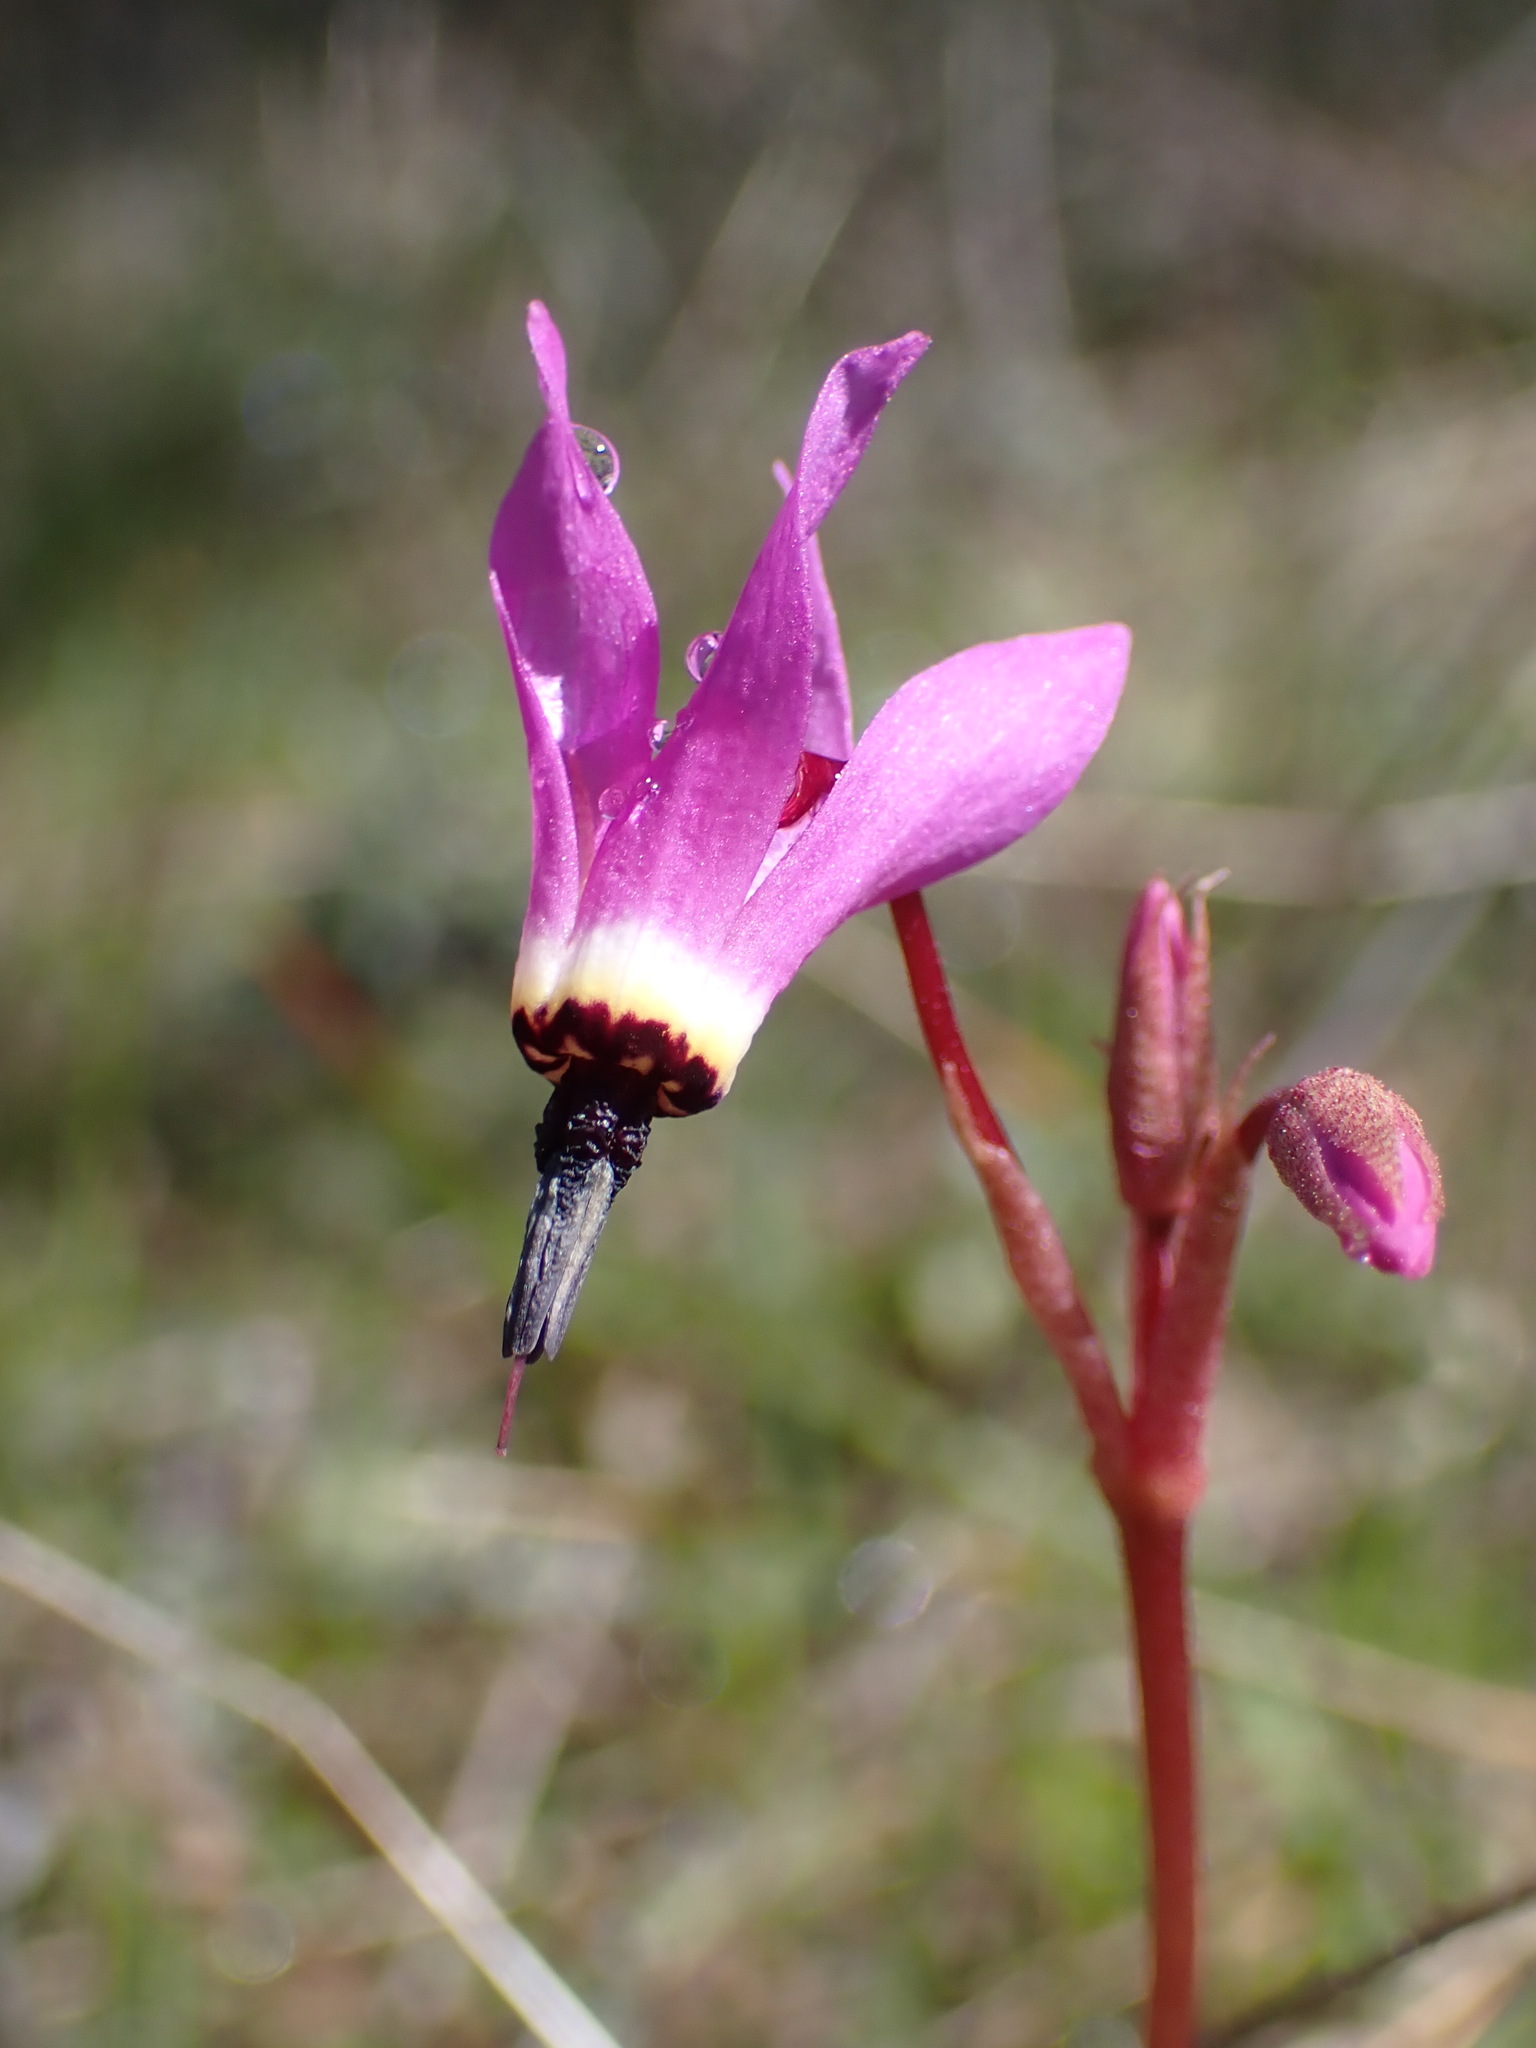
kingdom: Plantae
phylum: Tracheophyta
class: Magnoliopsida
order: Ericales
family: Primulaceae
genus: Dodecatheon
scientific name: Dodecatheon hendersonii
